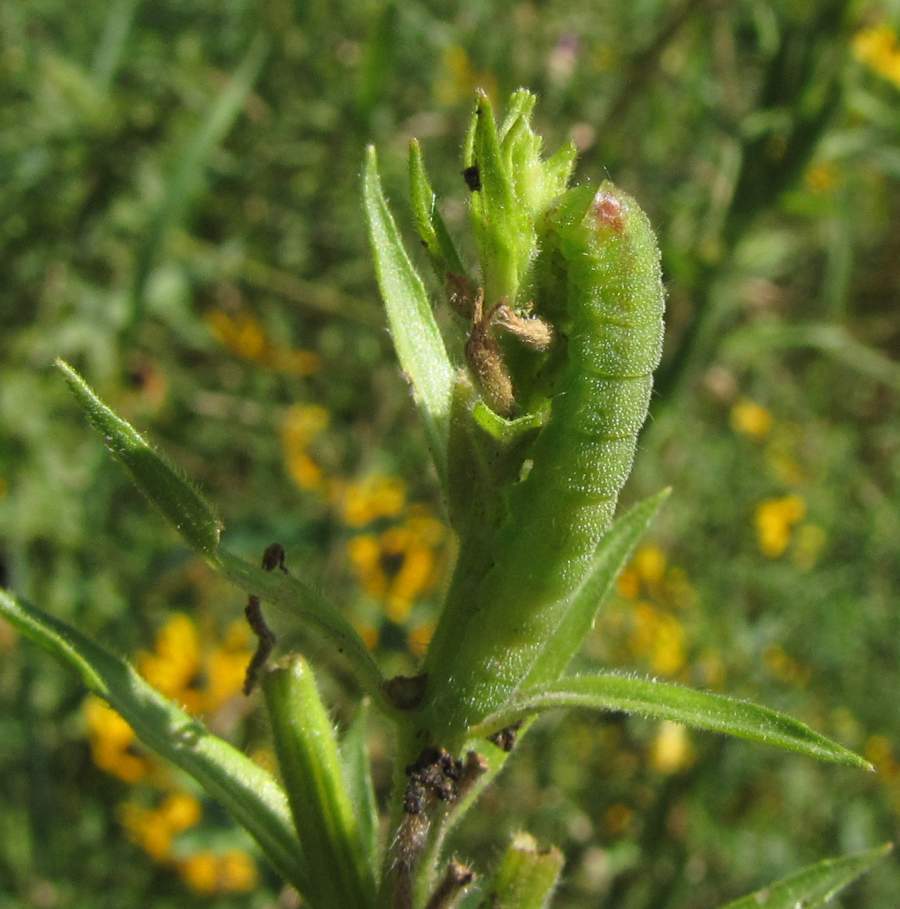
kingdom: Animalia
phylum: Arthropoda
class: Insecta
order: Lepidoptera
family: Noctuidae
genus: Schinia
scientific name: Schinia florida
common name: Primrose moth
